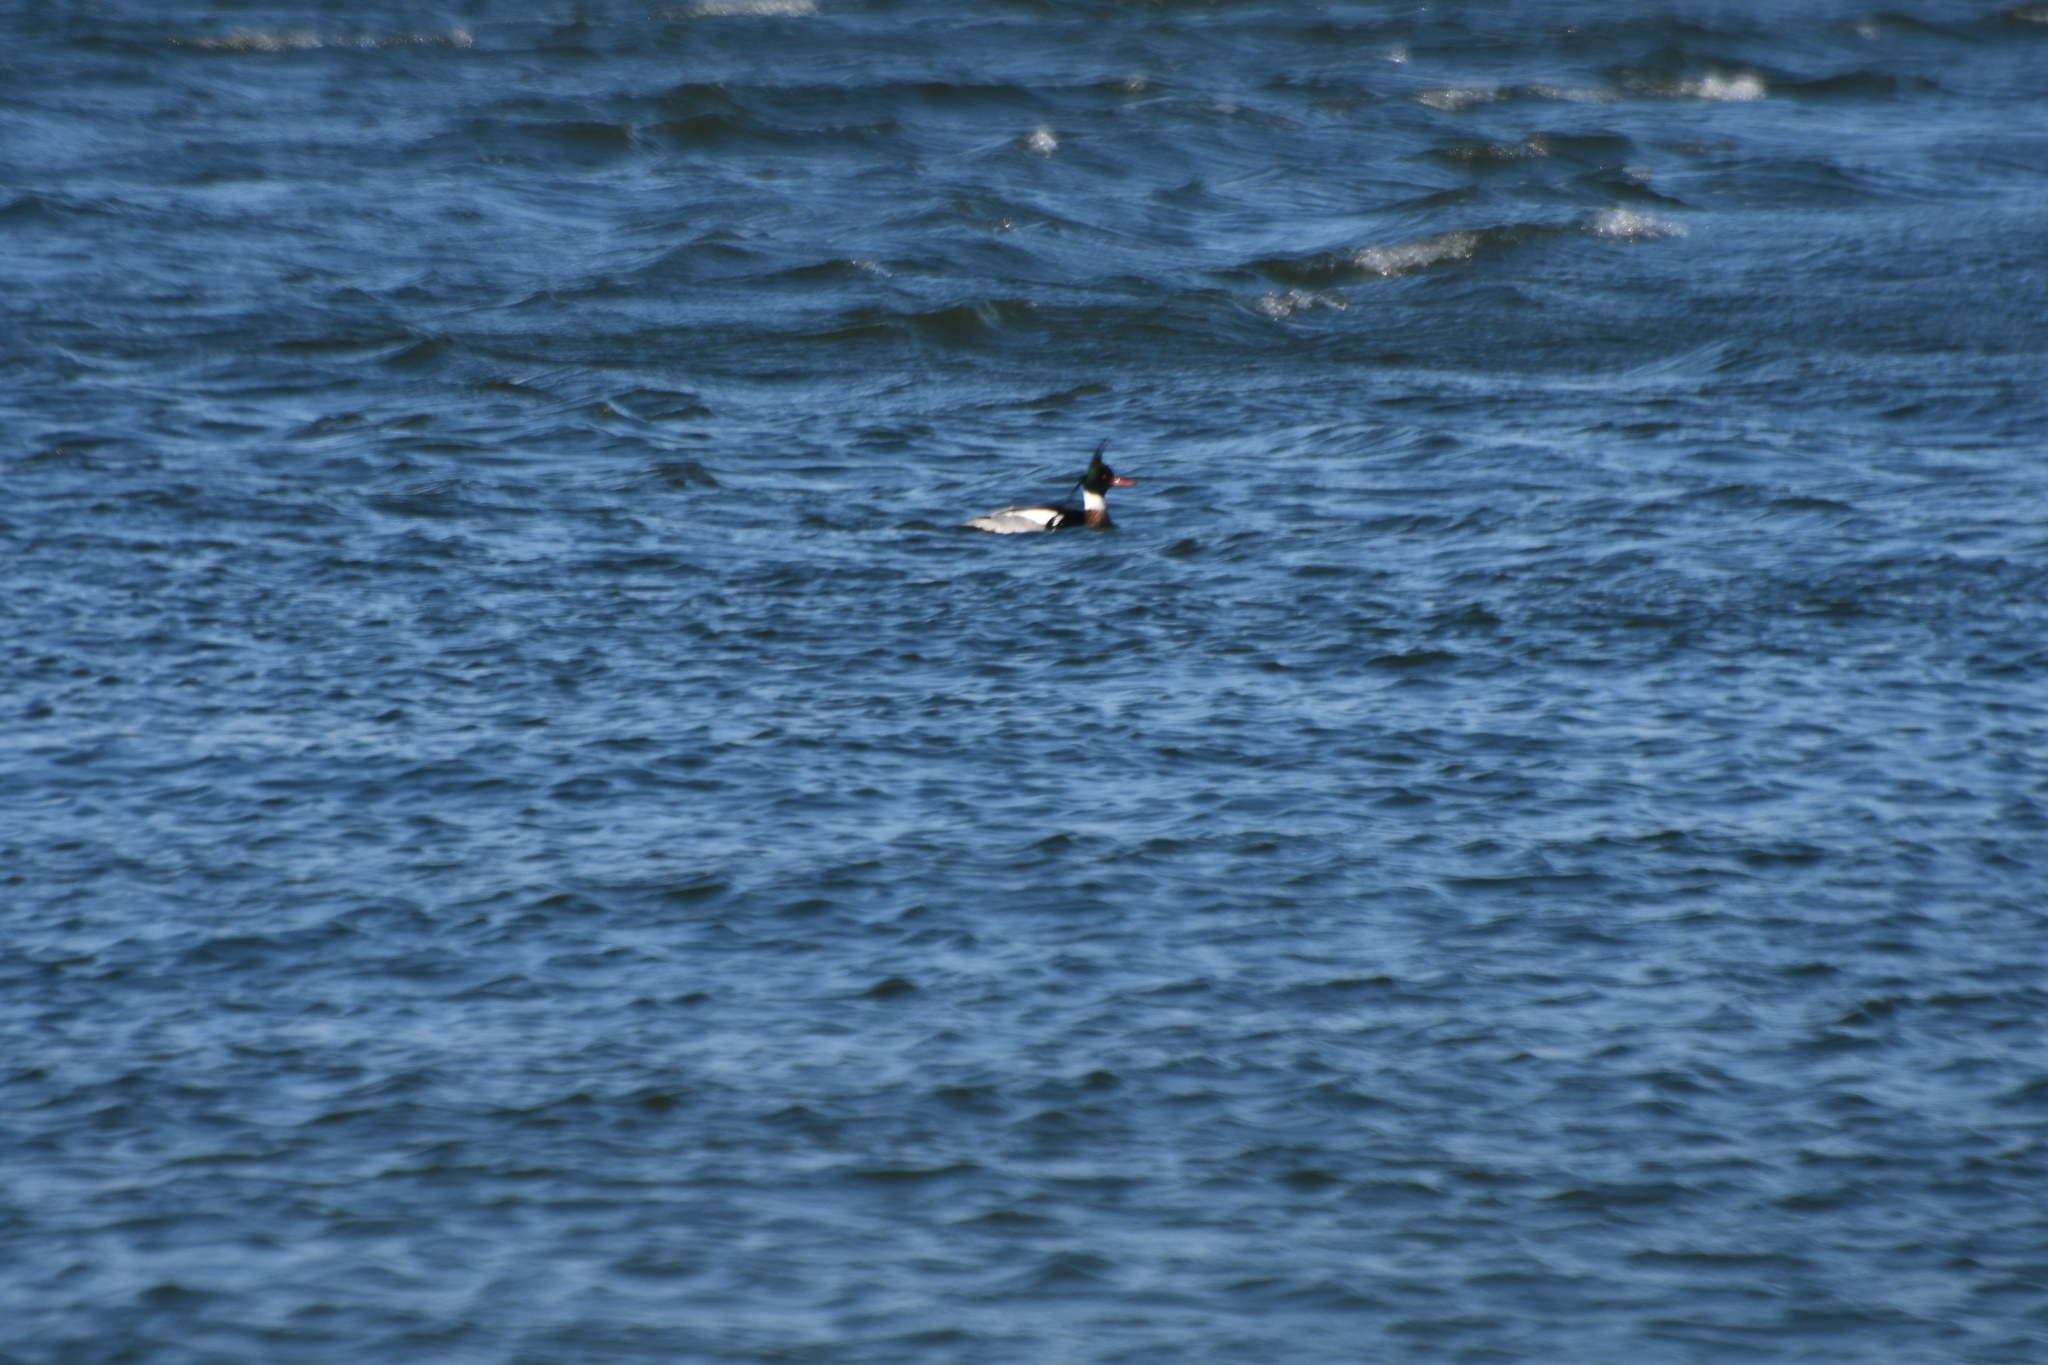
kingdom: Animalia
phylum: Chordata
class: Aves
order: Anseriformes
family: Anatidae
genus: Mergus
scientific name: Mergus serrator
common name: Red-breasted merganser
